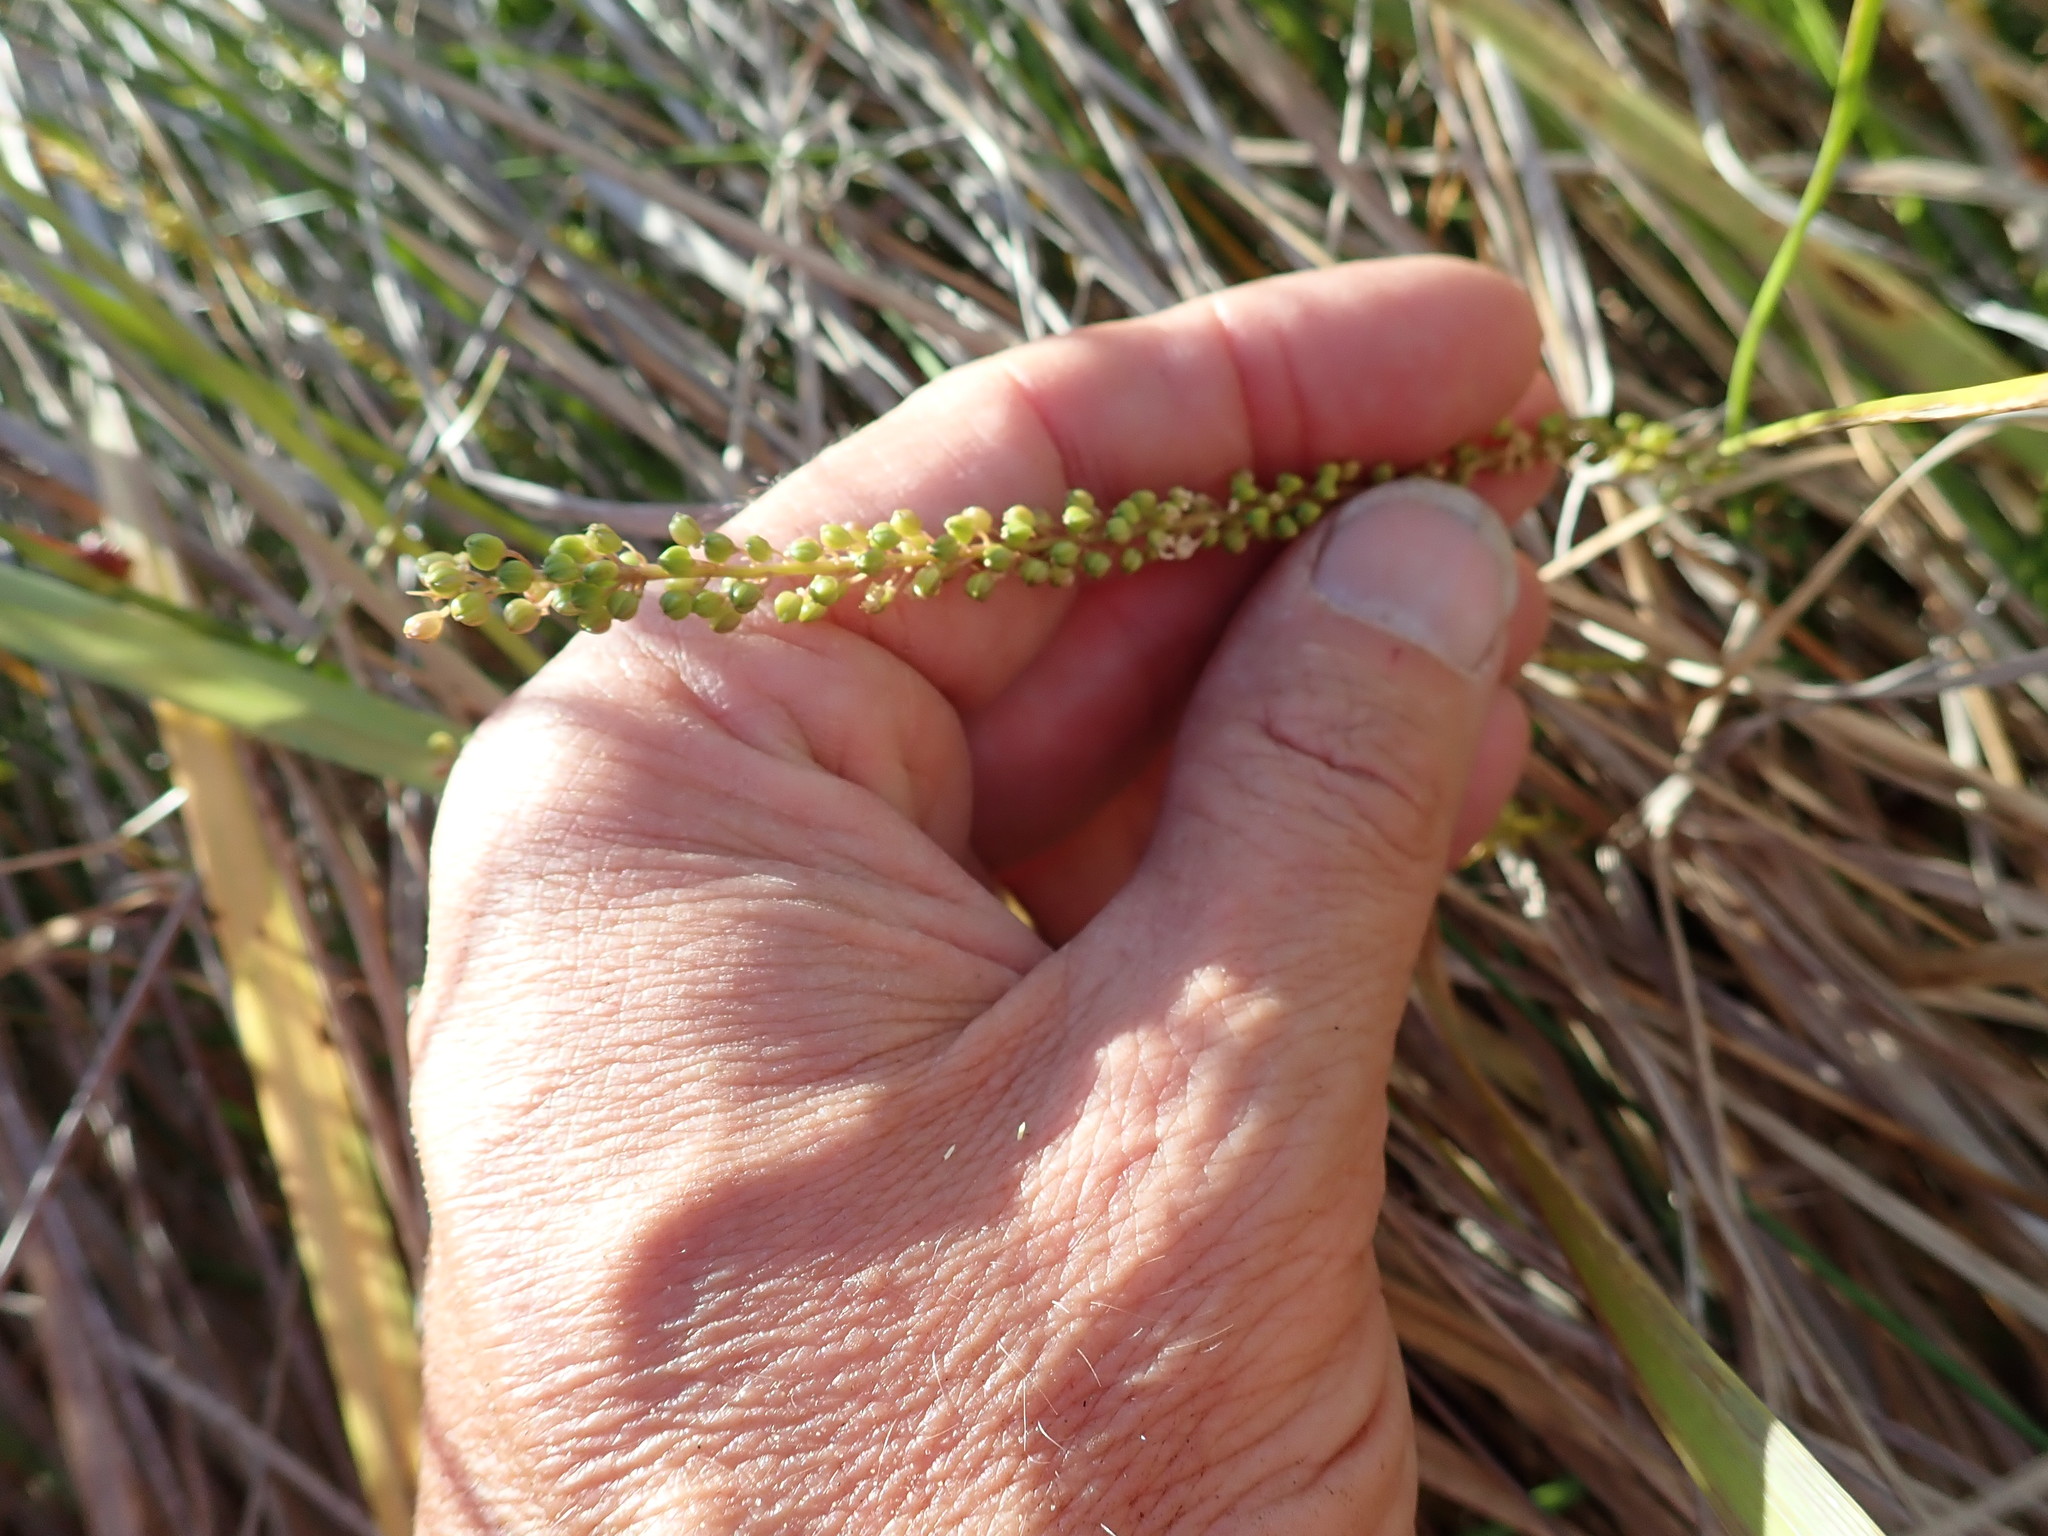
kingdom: Plantae
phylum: Tracheophyta
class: Liliopsida
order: Alismatales
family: Juncaginaceae
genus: Triglochin
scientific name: Triglochin striata
